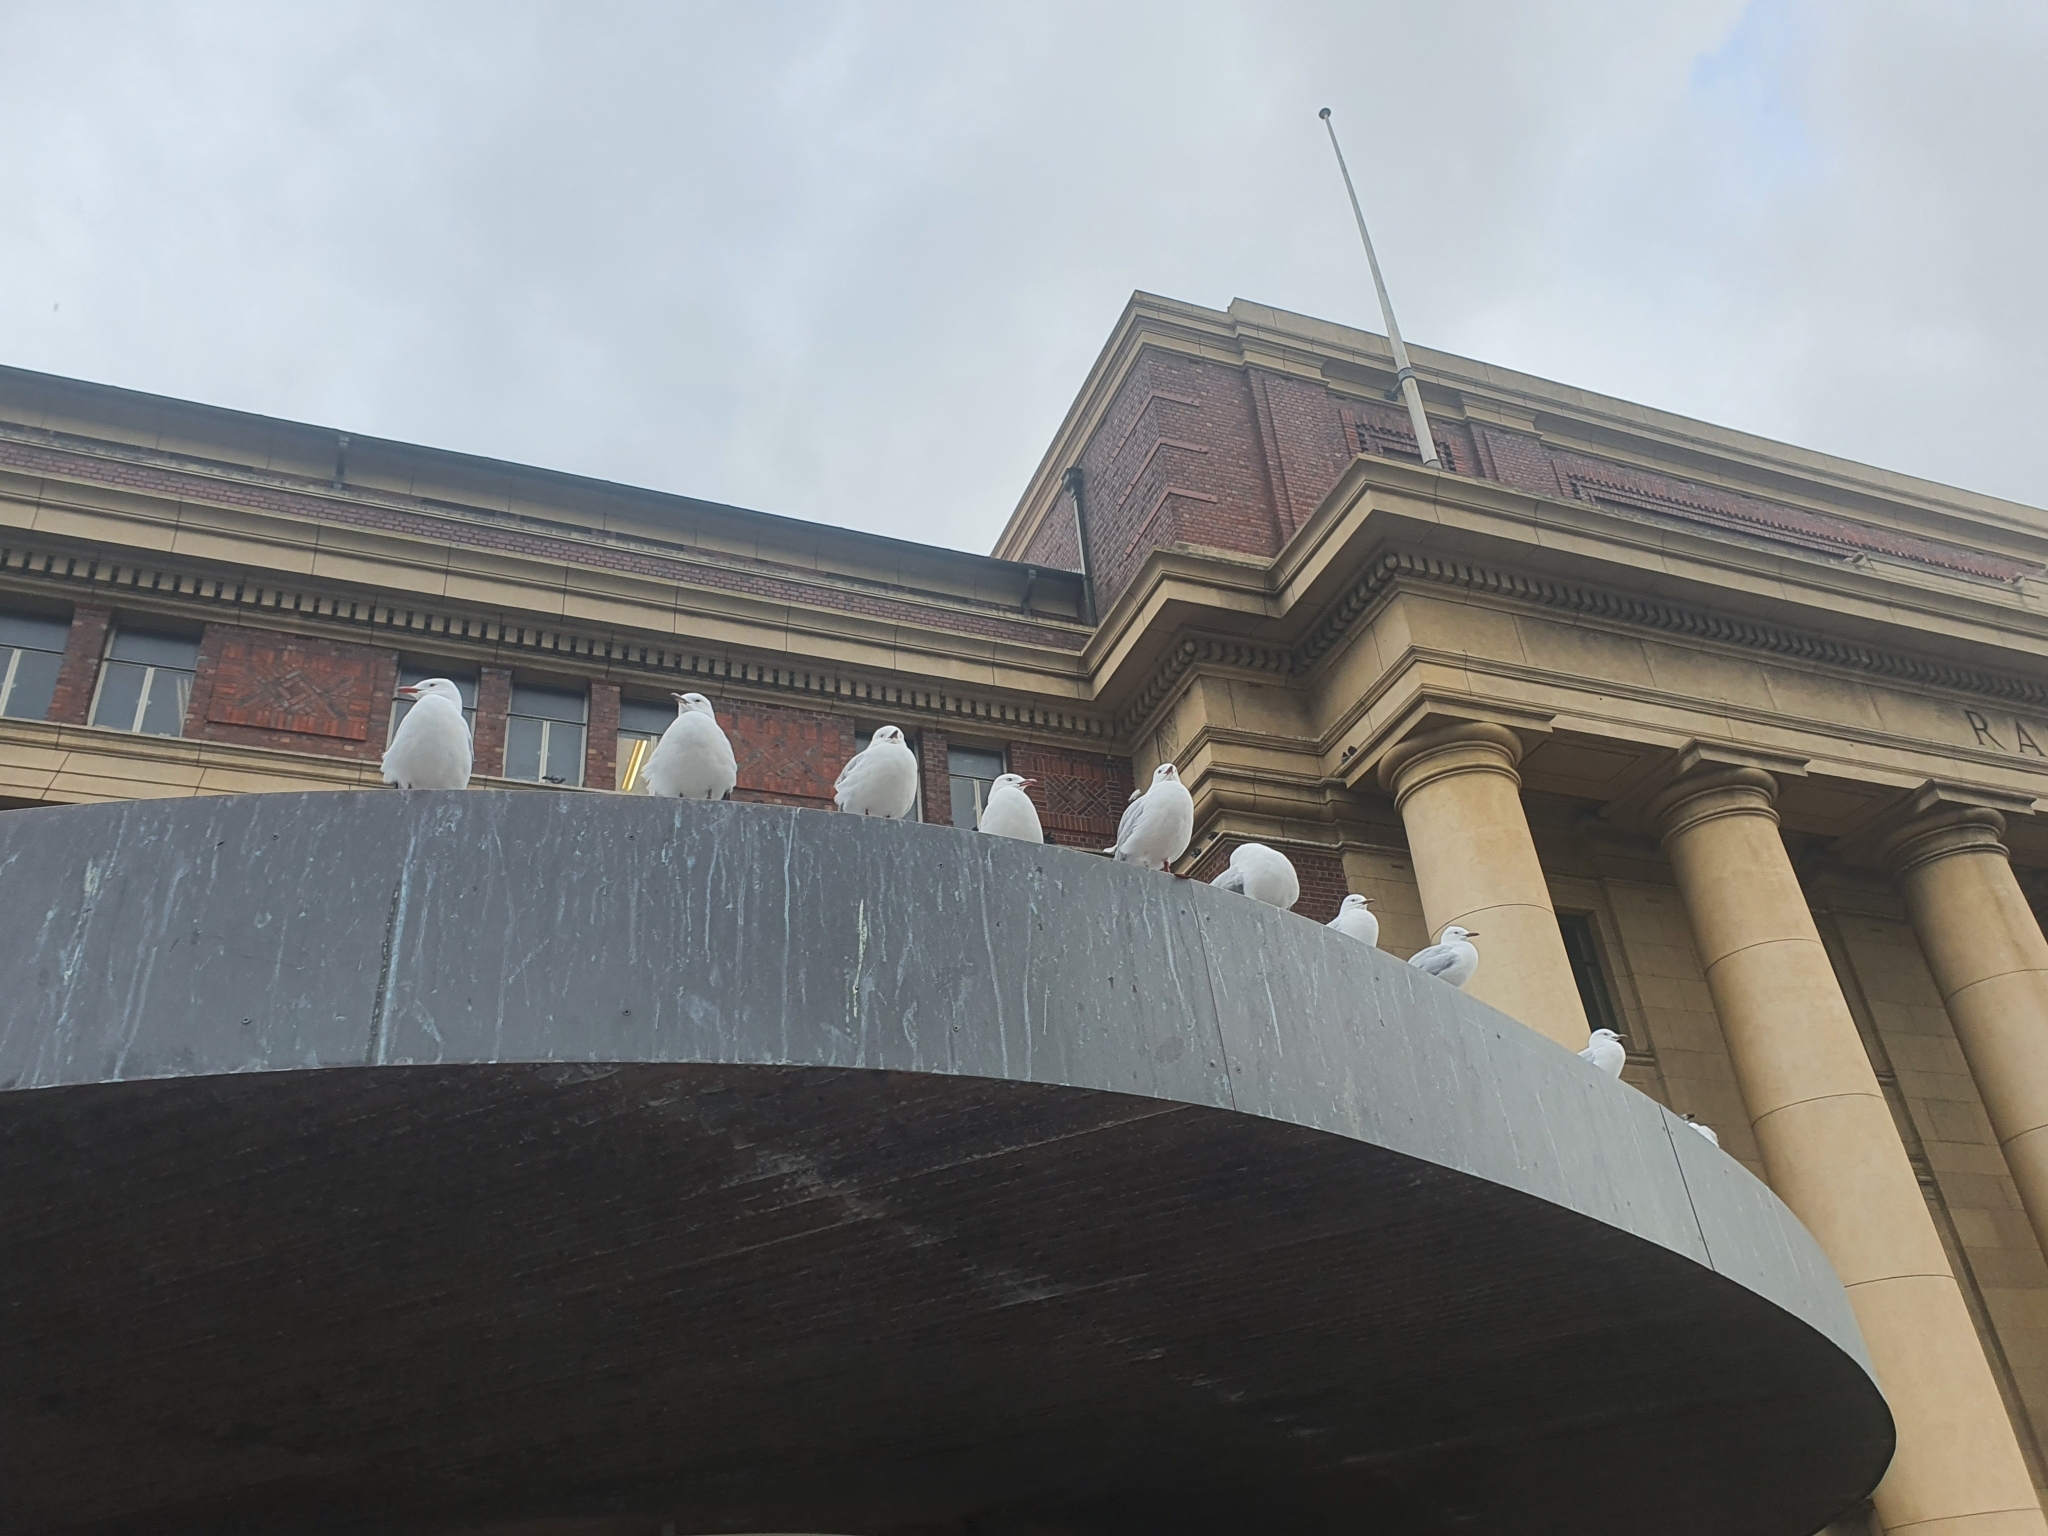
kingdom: Animalia
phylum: Chordata
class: Aves
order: Charadriiformes
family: Laridae
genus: Chroicocephalus
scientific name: Chroicocephalus novaehollandiae
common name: Silver gull
